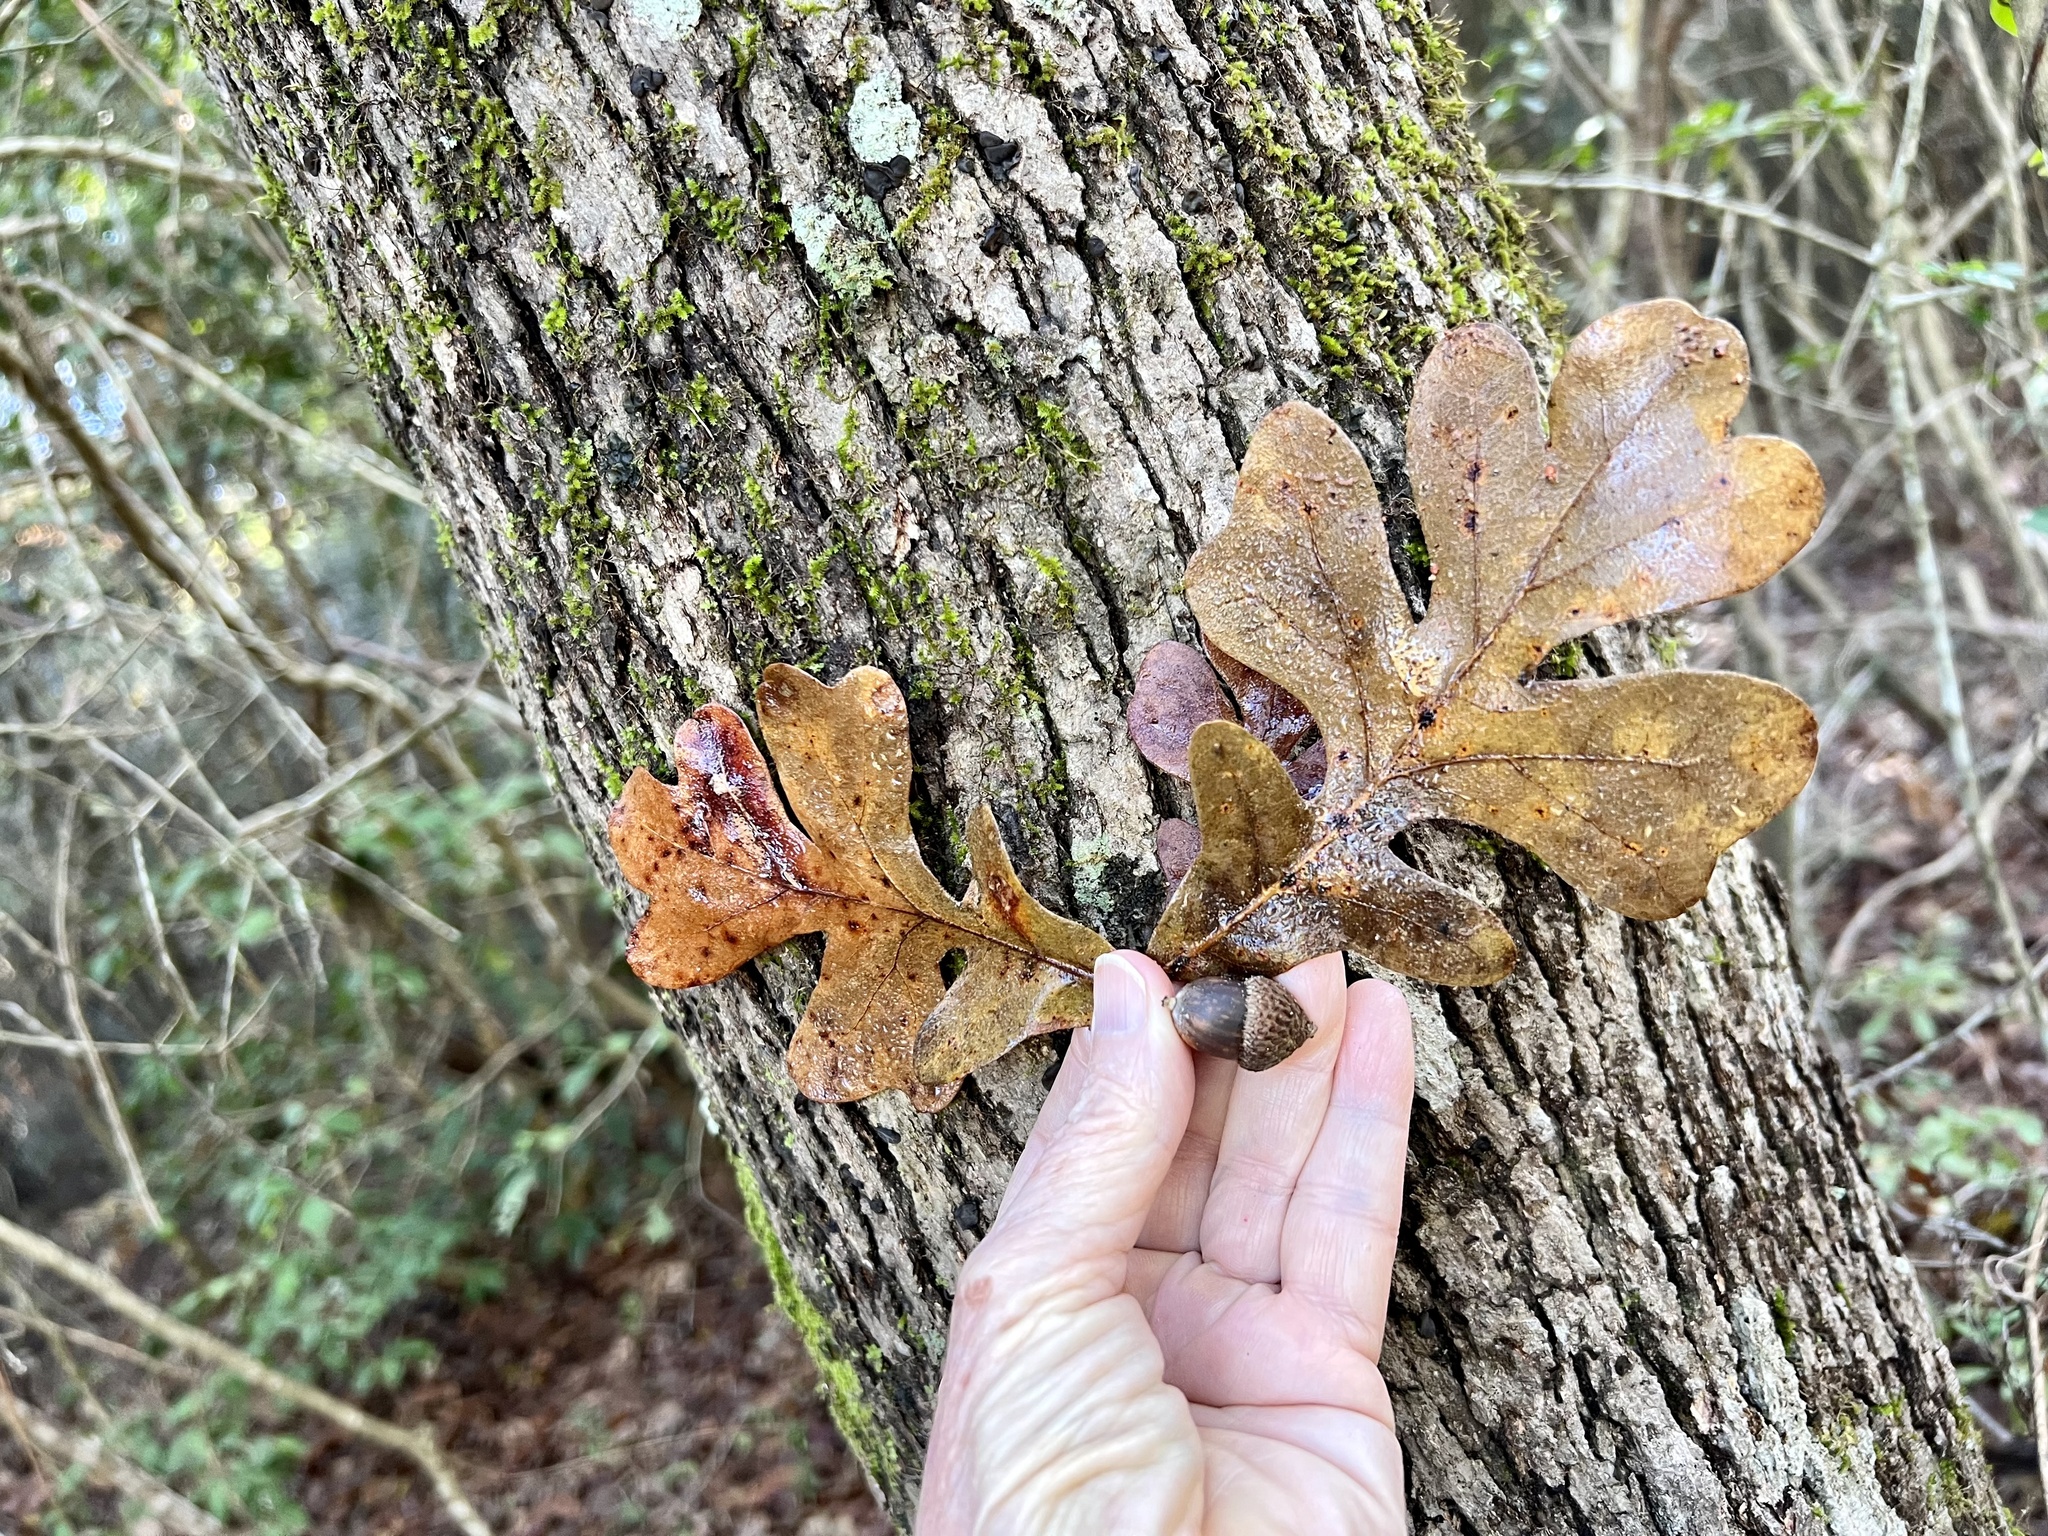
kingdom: Plantae
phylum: Tracheophyta
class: Magnoliopsida
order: Fagales
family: Fagaceae
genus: Quercus
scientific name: Quercus stellata
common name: Post oak
